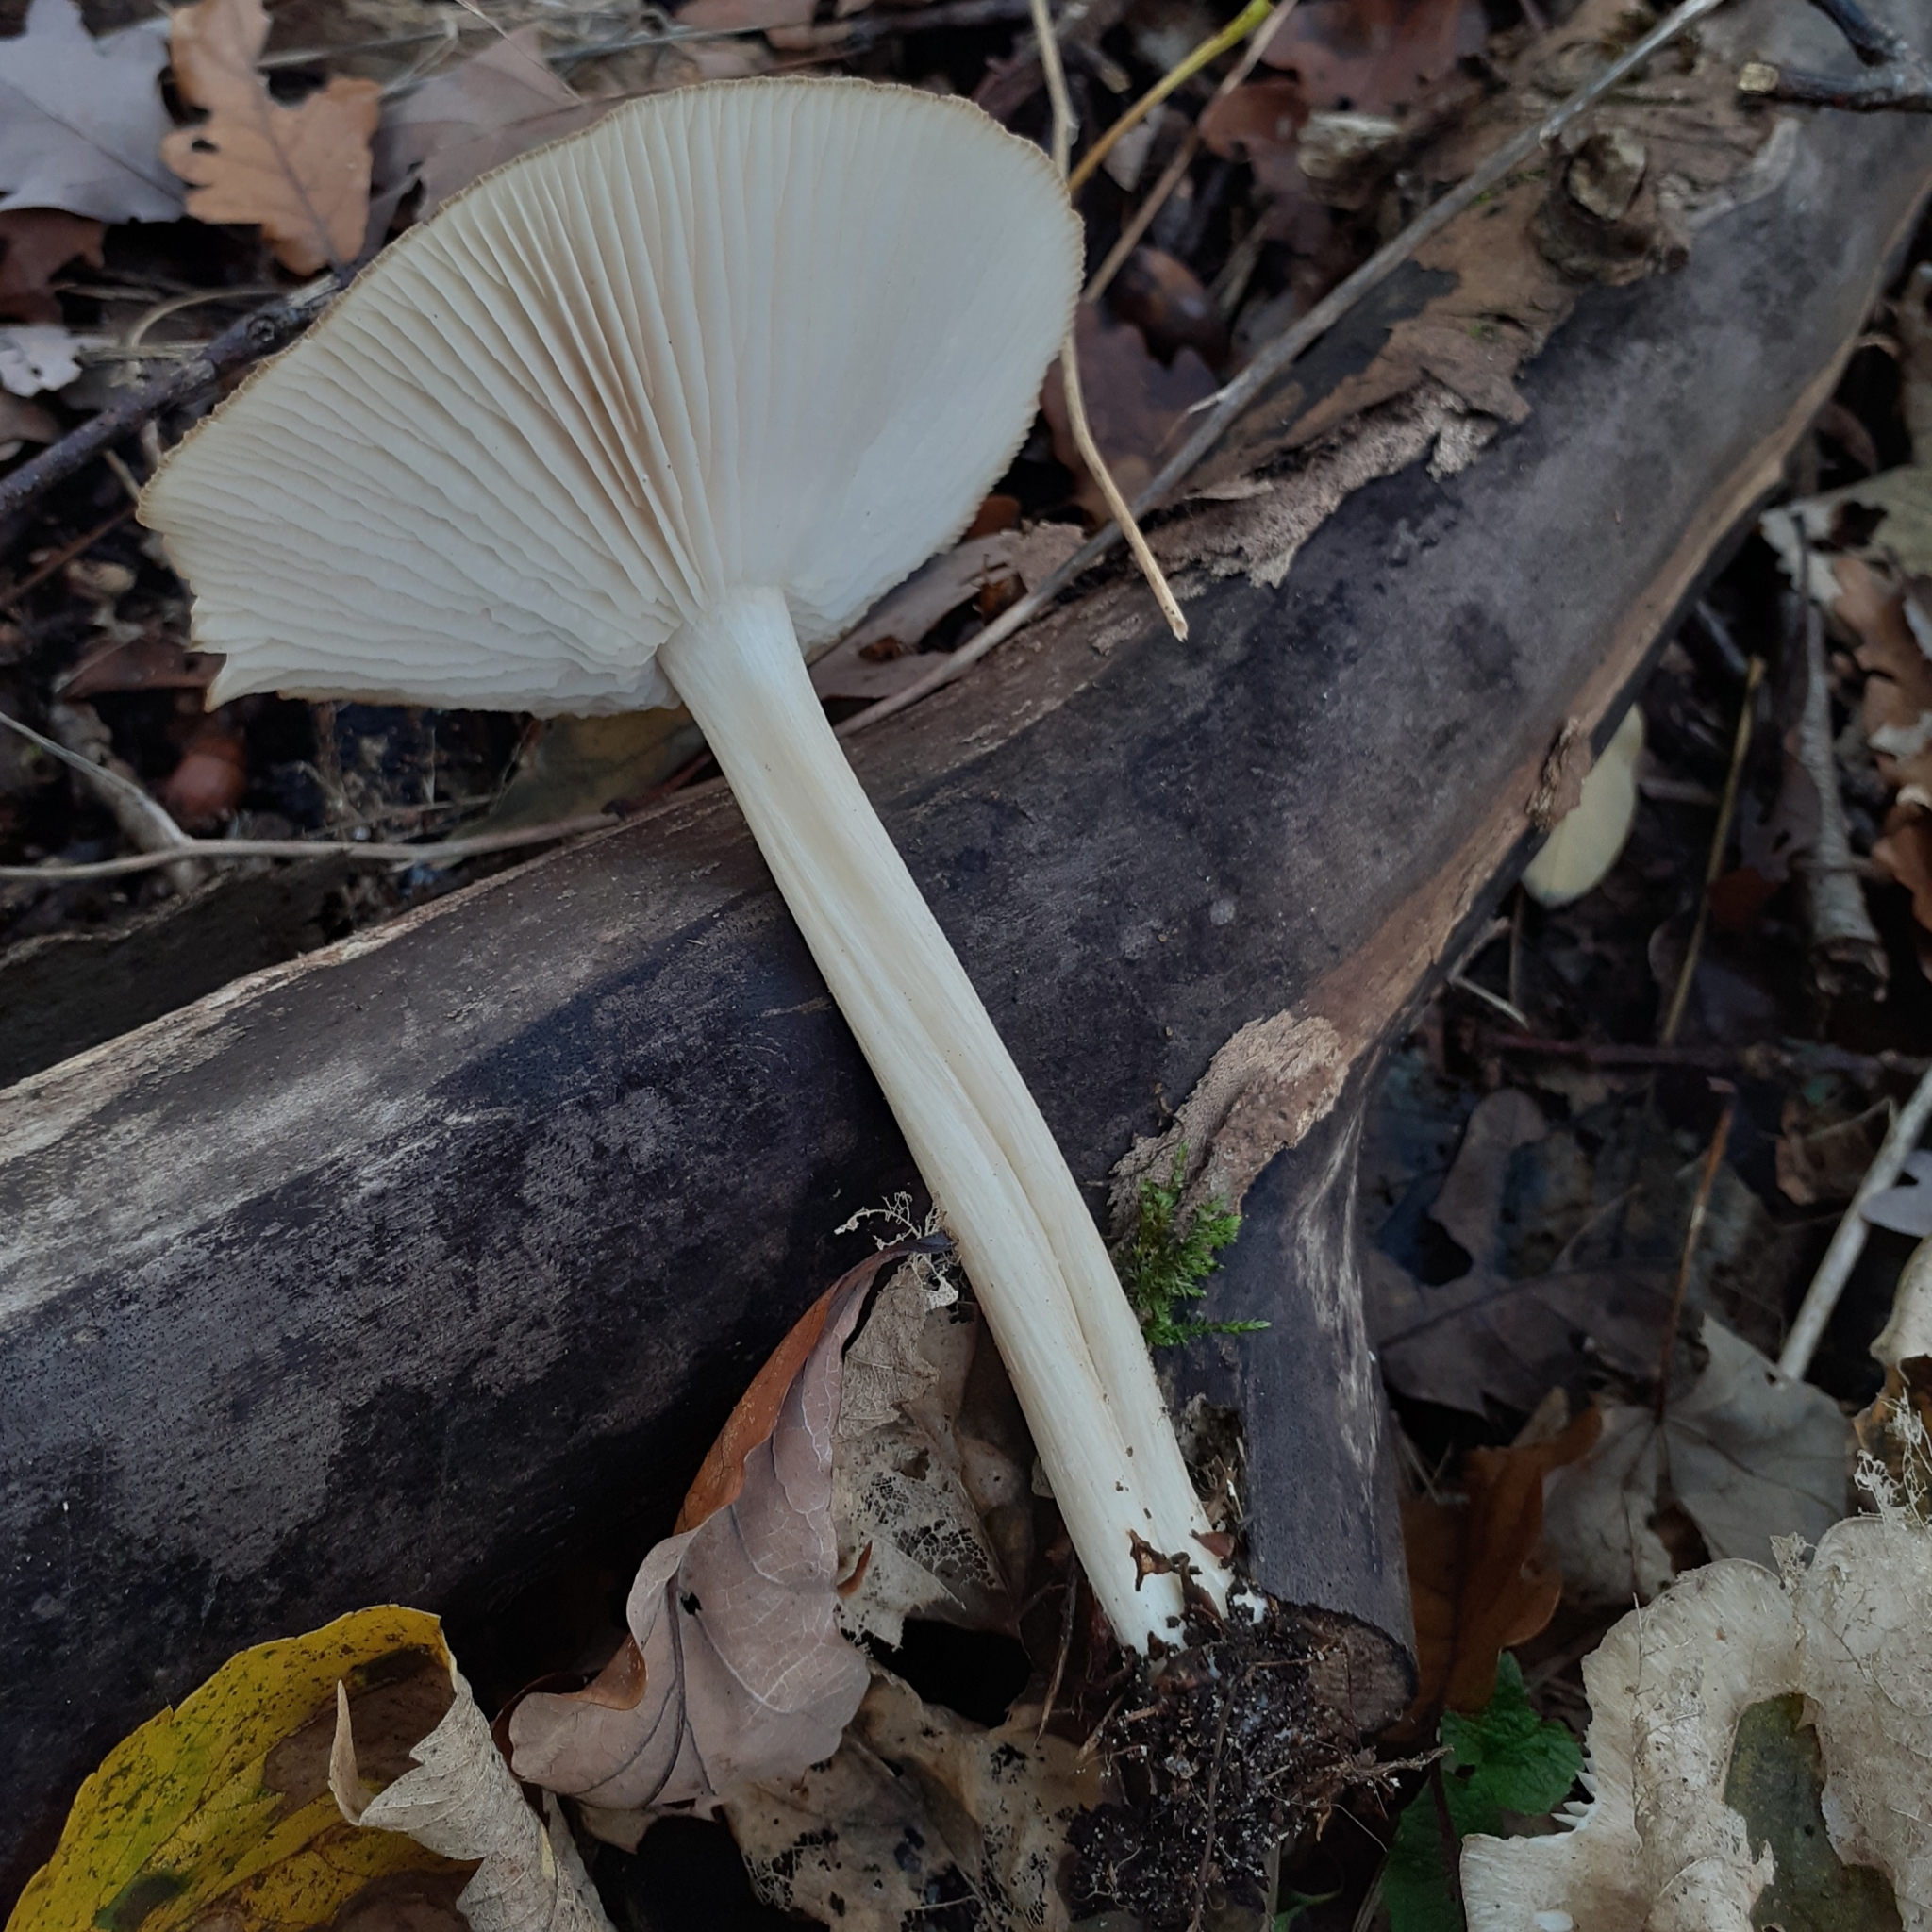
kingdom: Fungi
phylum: Basidiomycota
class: Agaricomycetes
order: Agaricales
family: Tricholomataceae
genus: Megacollybia
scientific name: Megacollybia platyphylla
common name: Whitelaced shank
